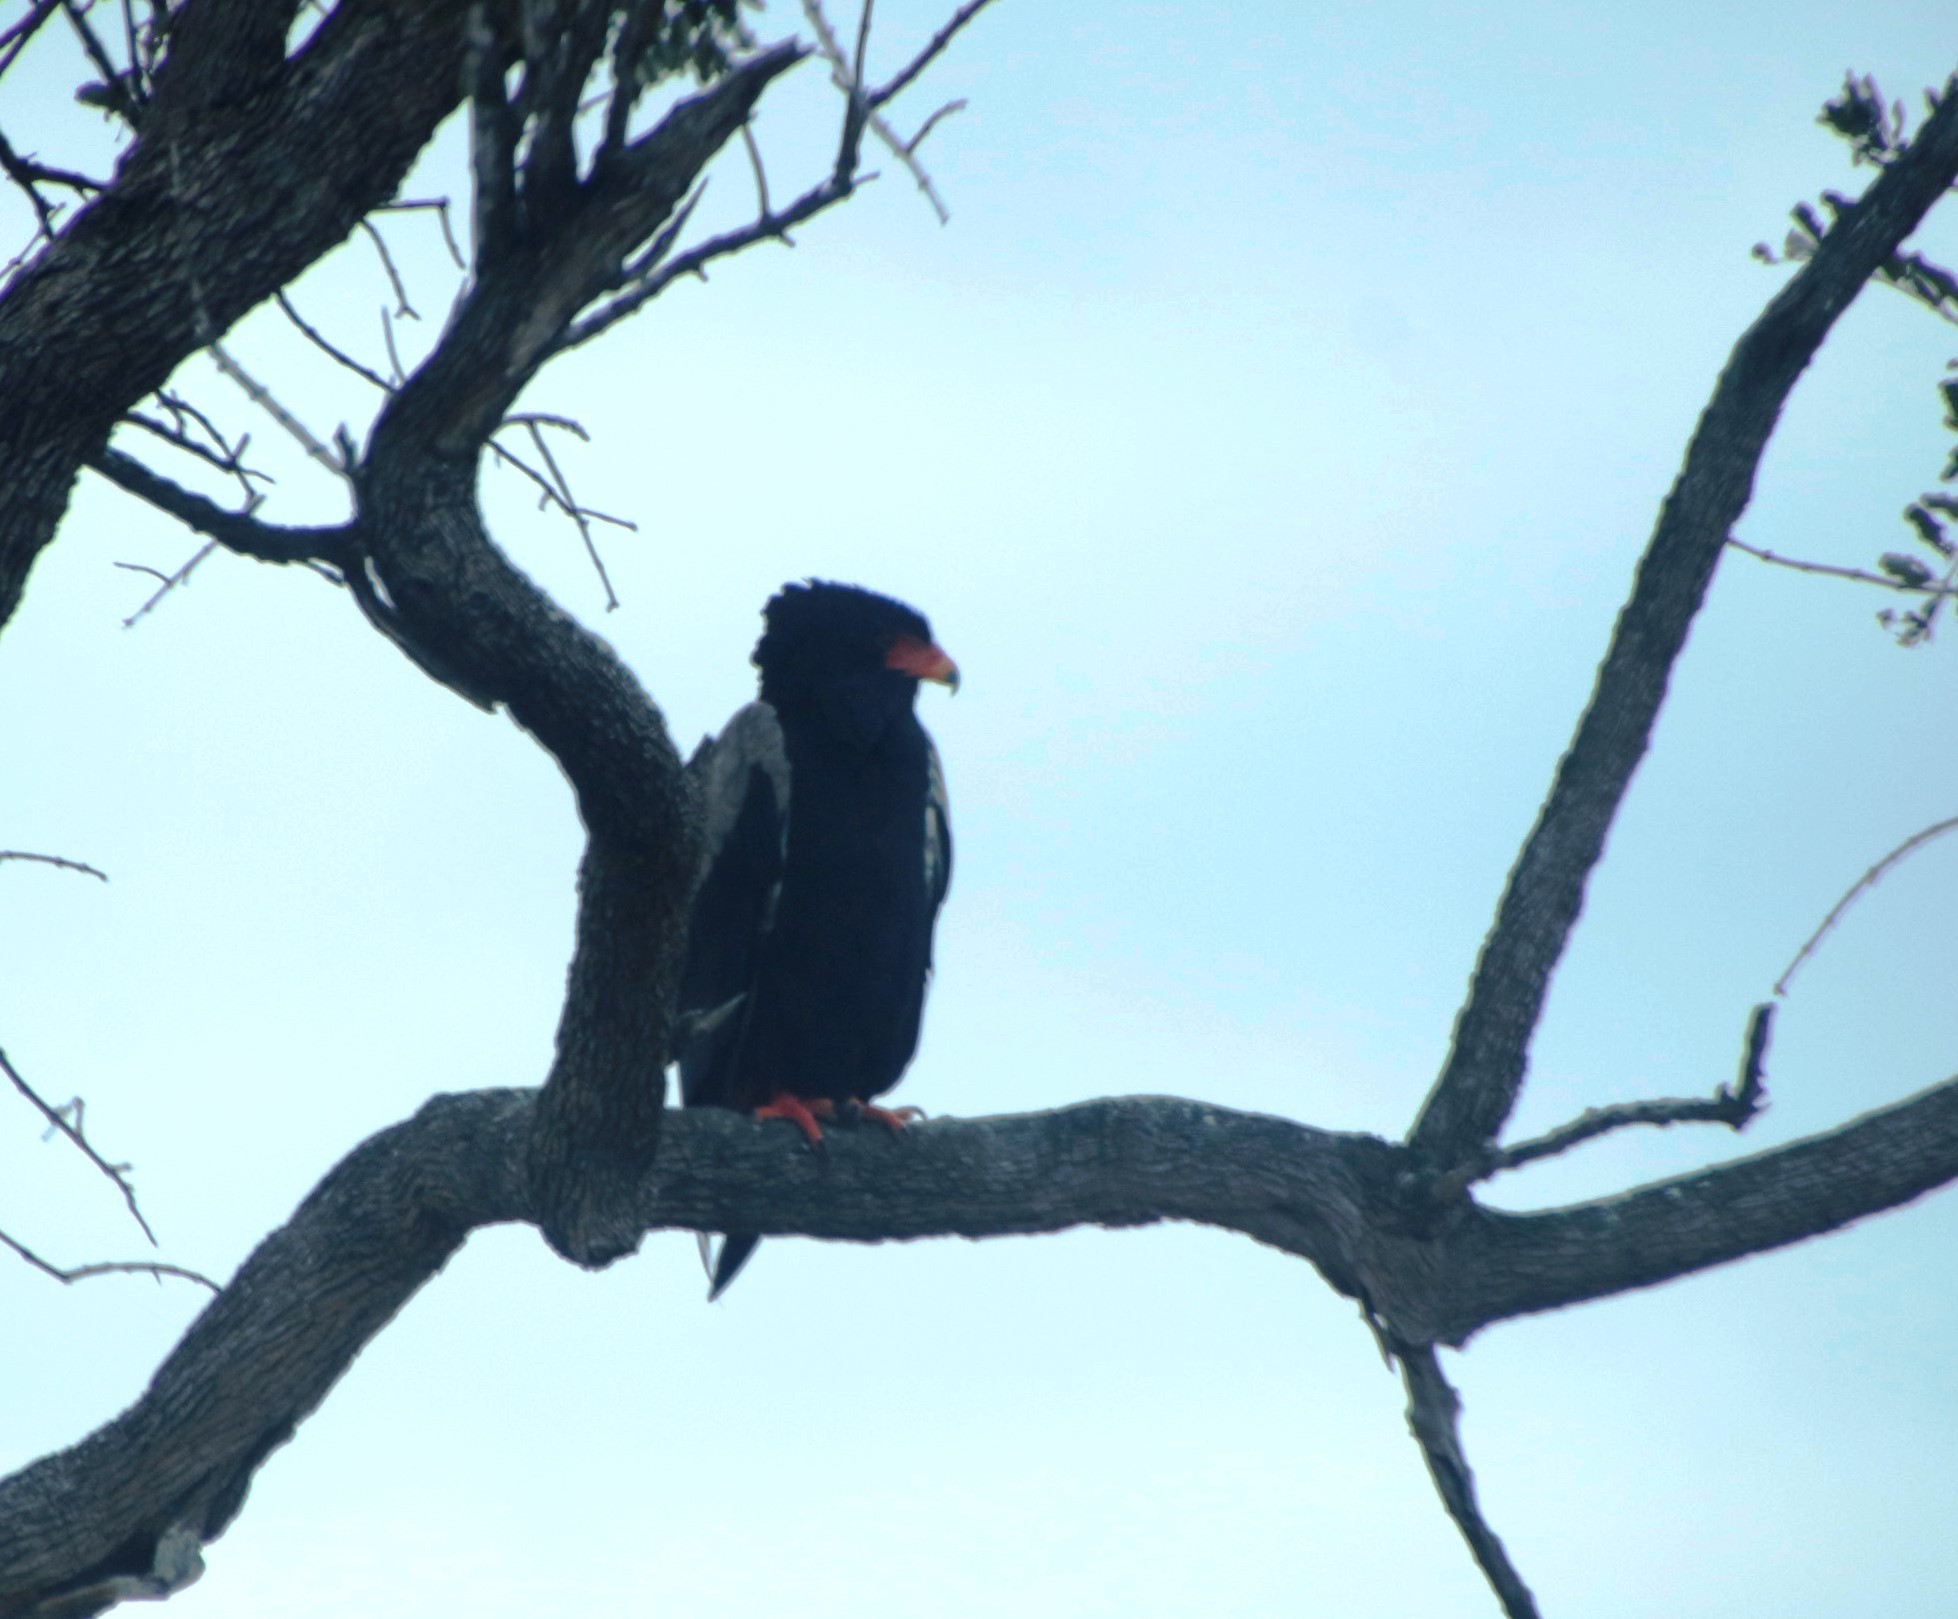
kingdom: Animalia
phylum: Chordata
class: Aves
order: Accipitriformes
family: Accipitridae
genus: Terathopius
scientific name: Terathopius ecaudatus
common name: Bateleur
